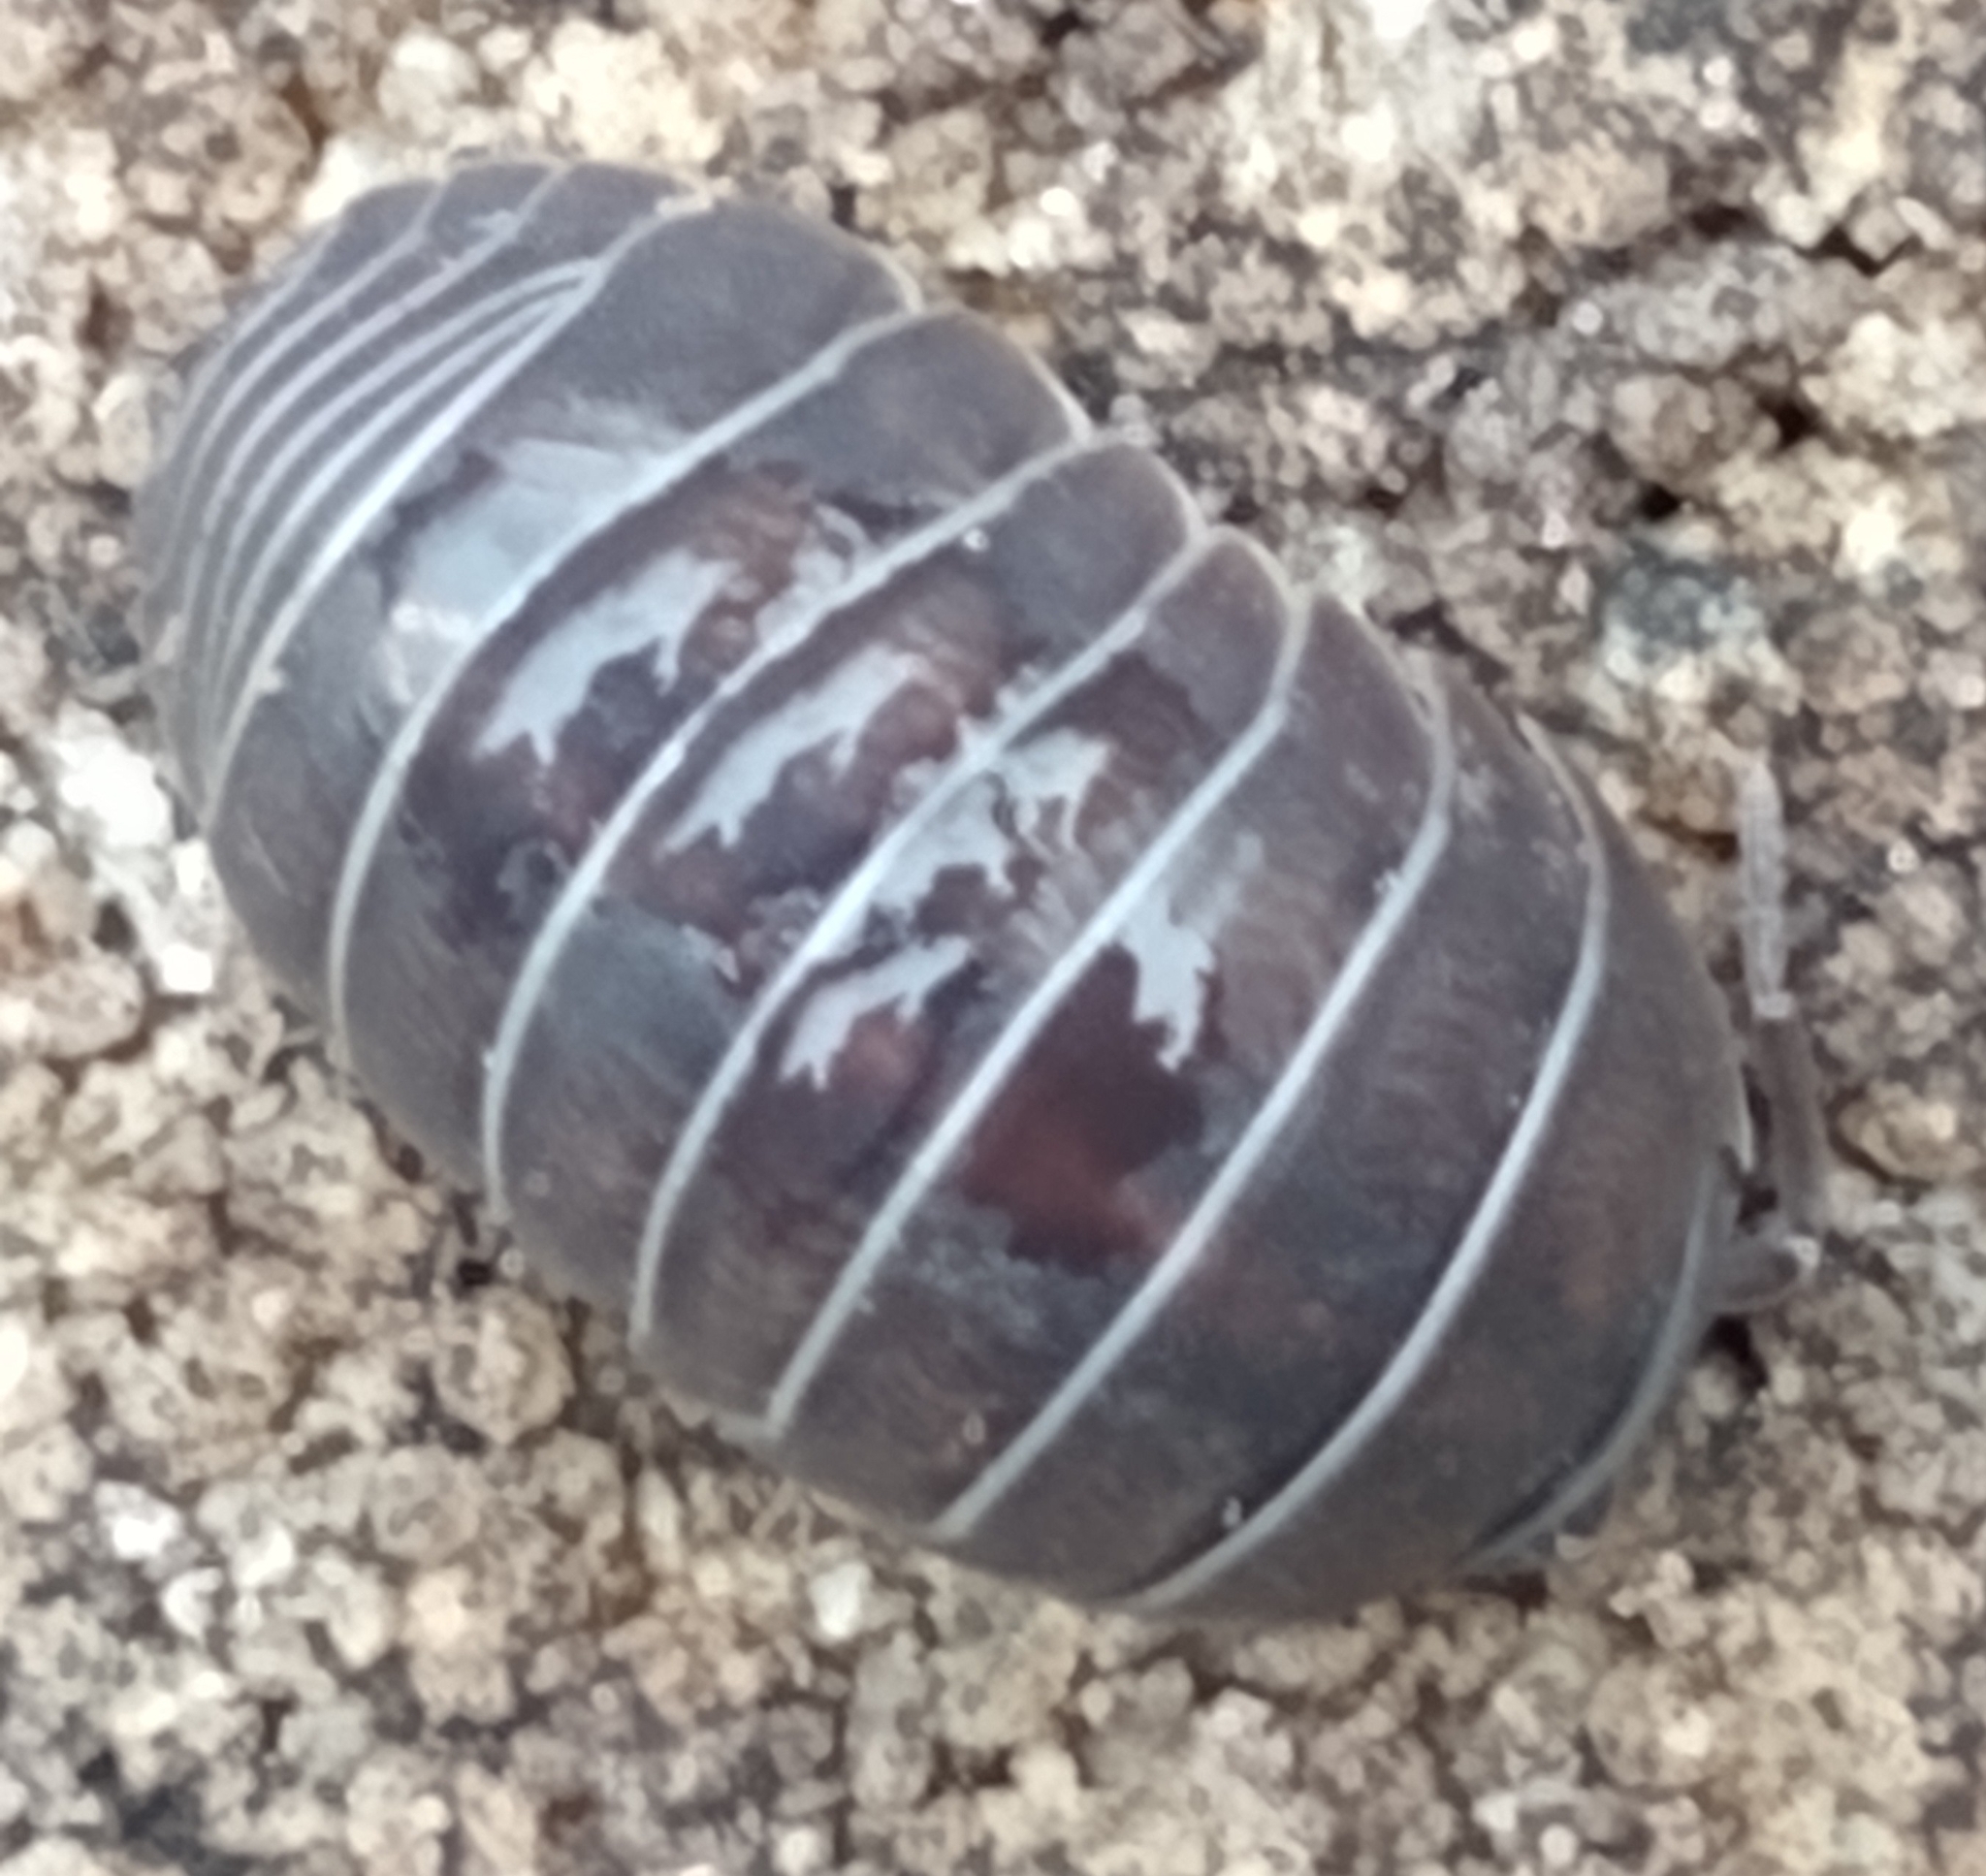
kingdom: Animalia
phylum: Arthropoda
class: Malacostraca
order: Isopoda
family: Armadillidiidae
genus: Armadillidium
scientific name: Armadillidium vulgare
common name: Common pill woodlouse
